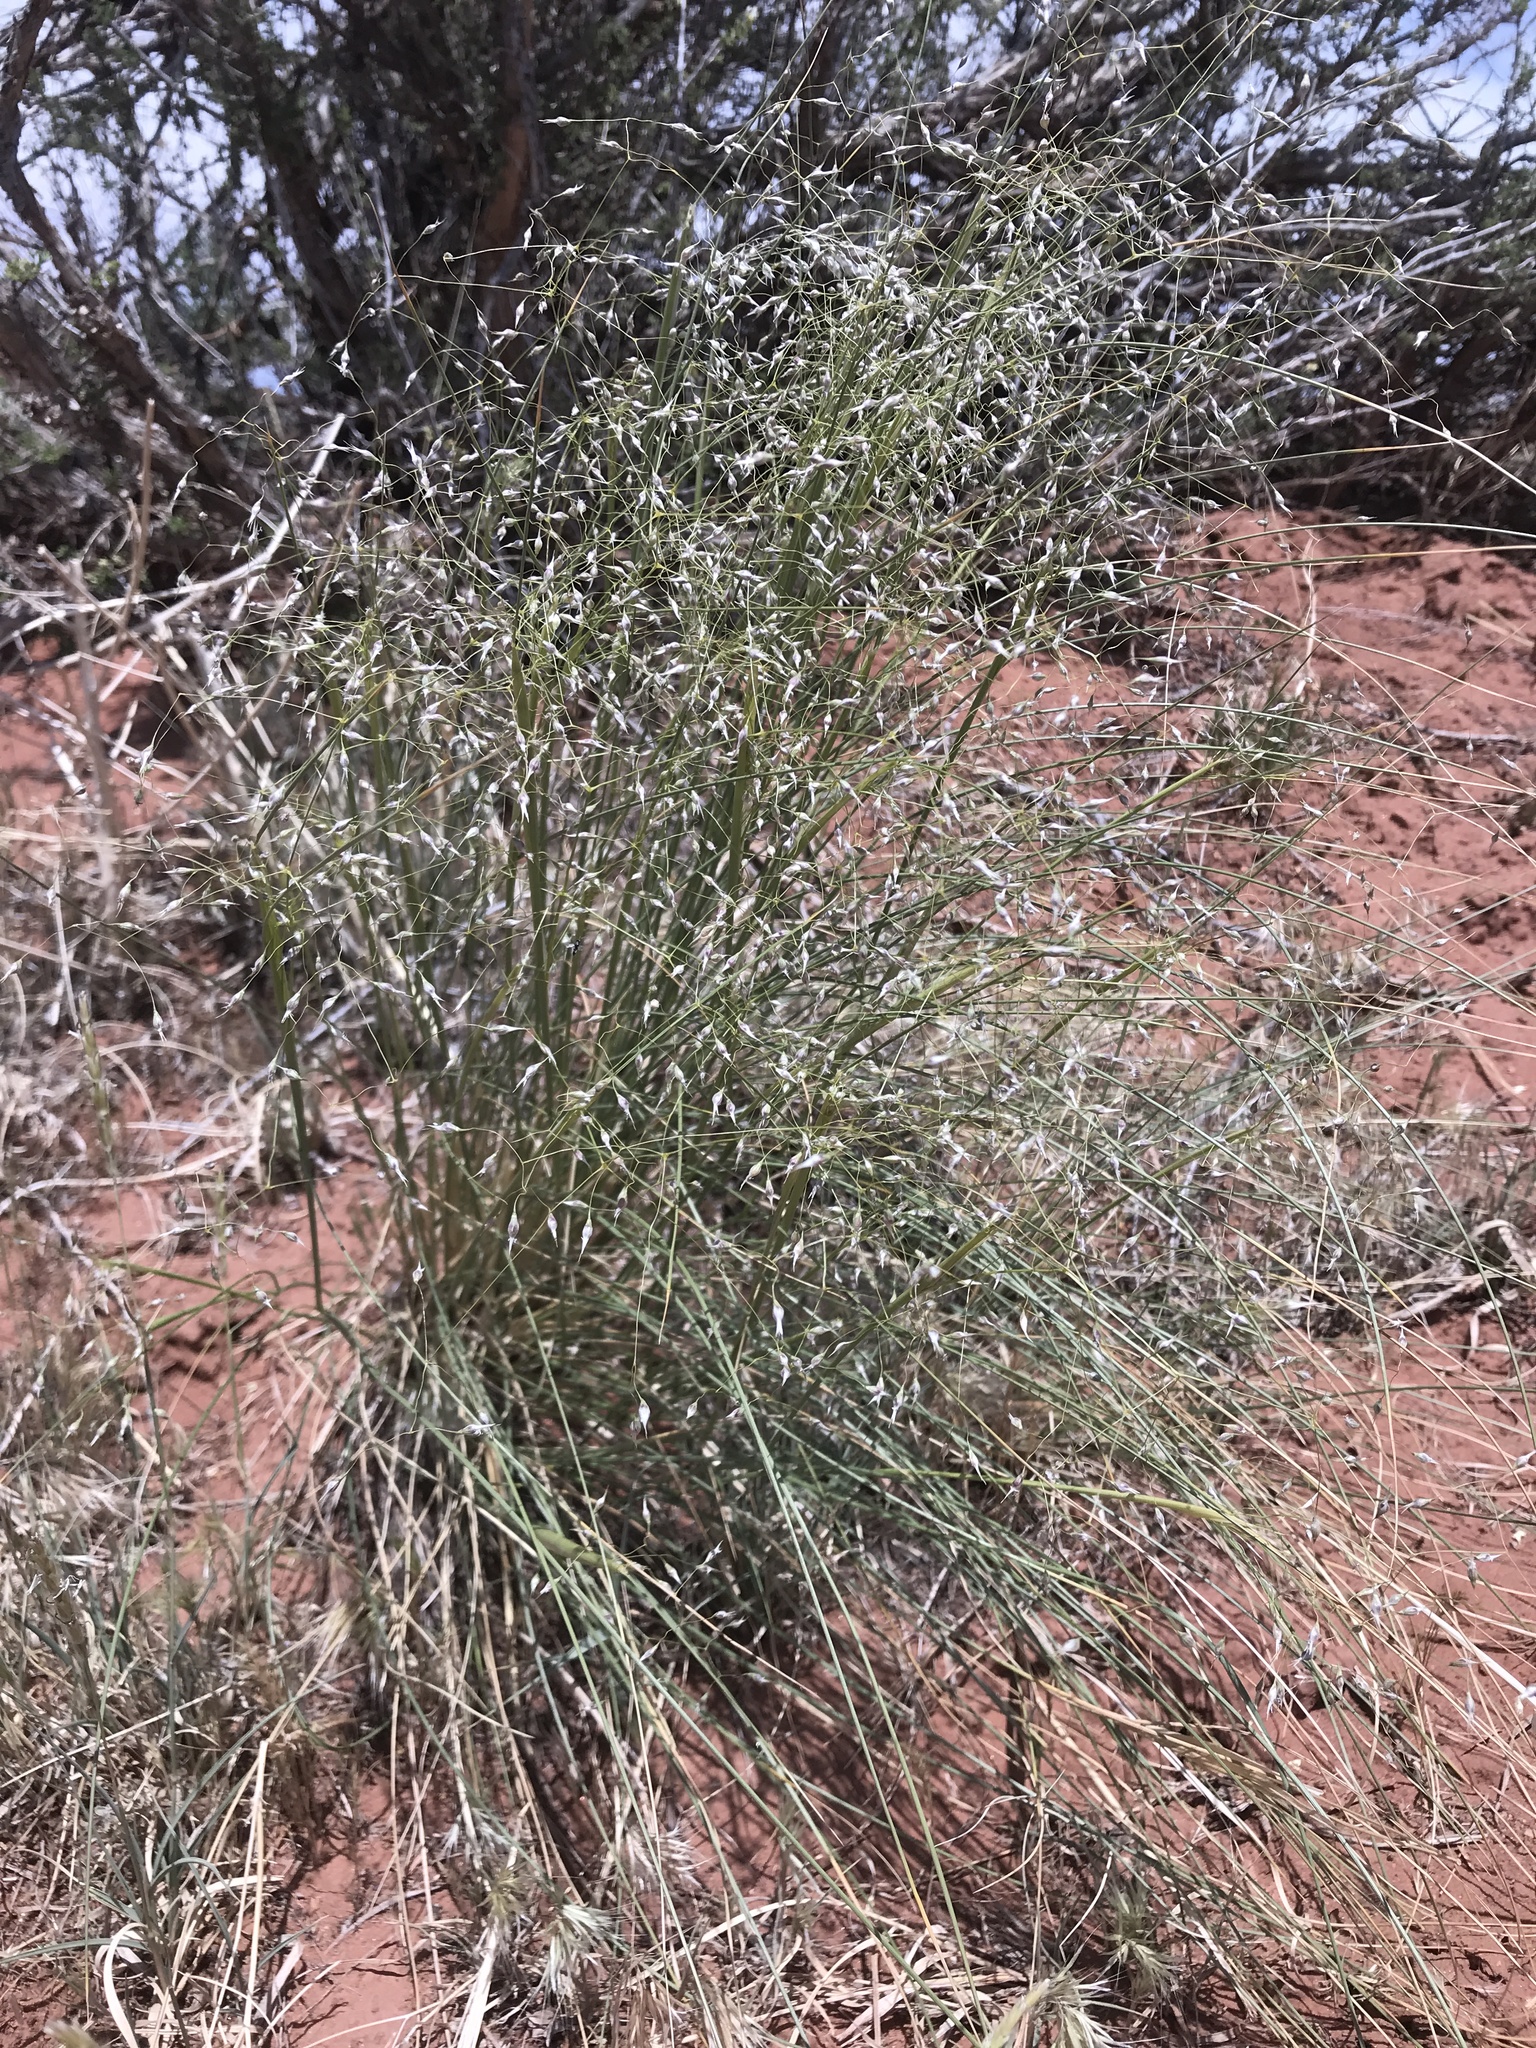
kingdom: Plantae
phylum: Tracheophyta
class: Liliopsida
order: Poales
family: Poaceae
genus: Eriocoma
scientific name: Eriocoma hymenoides
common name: Indian mountain ricegrass
